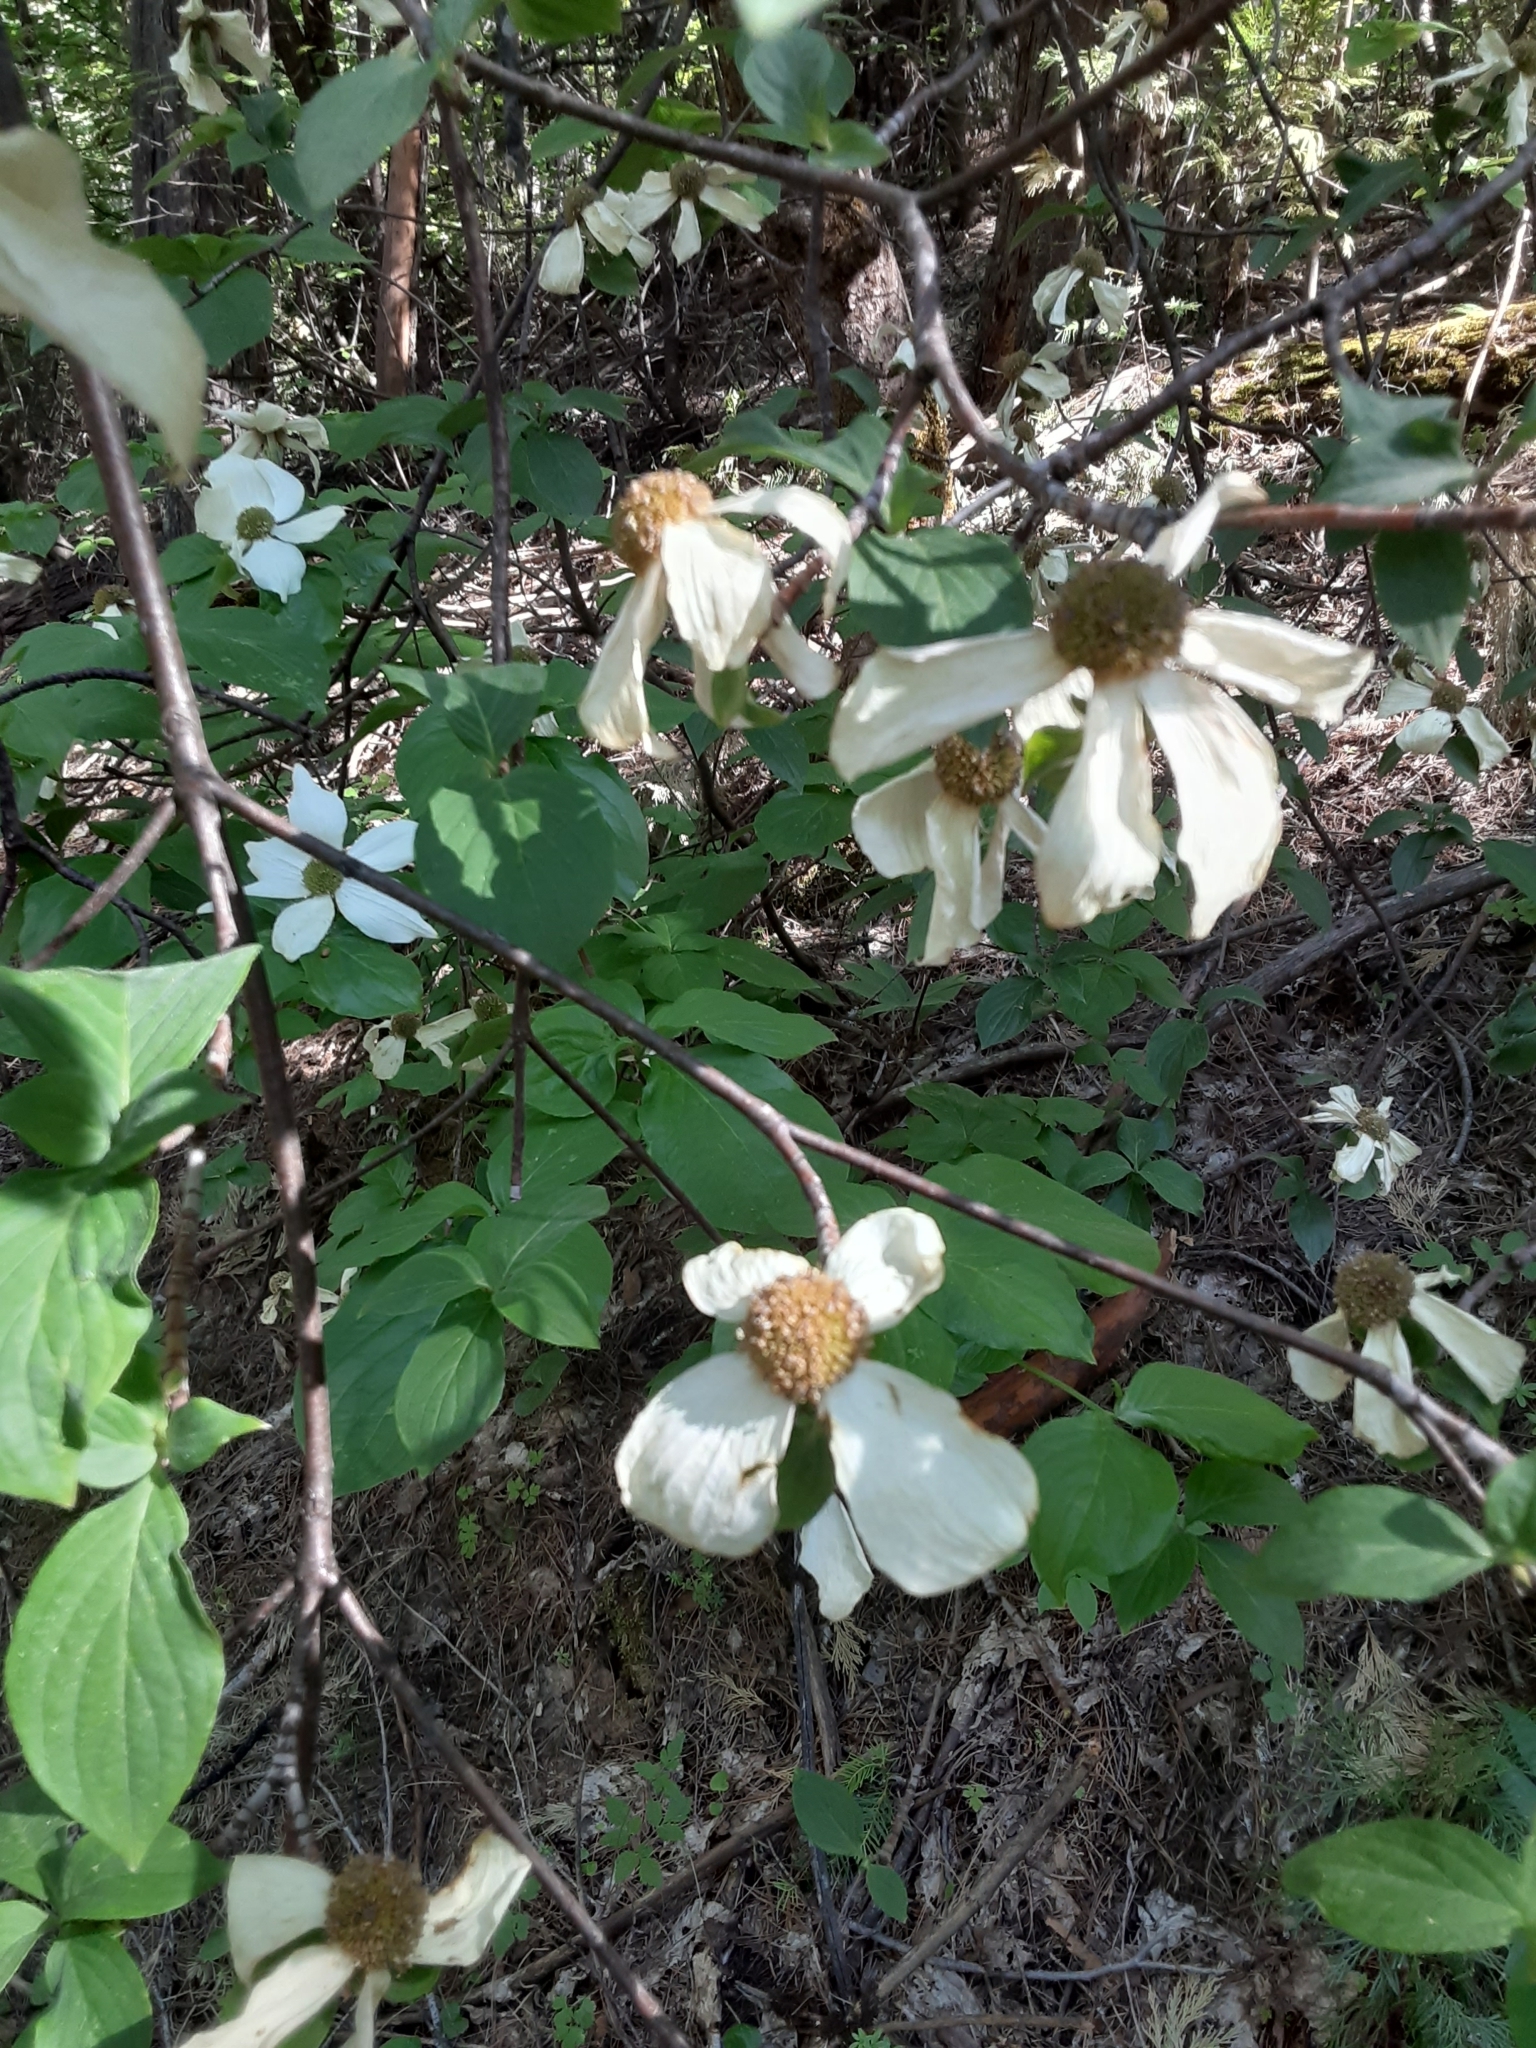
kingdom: Plantae
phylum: Tracheophyta
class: Magnoliopsida
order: Cornales
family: Cornaceae
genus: Cornus
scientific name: Cornus nuttallii
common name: Pacific dogwood
